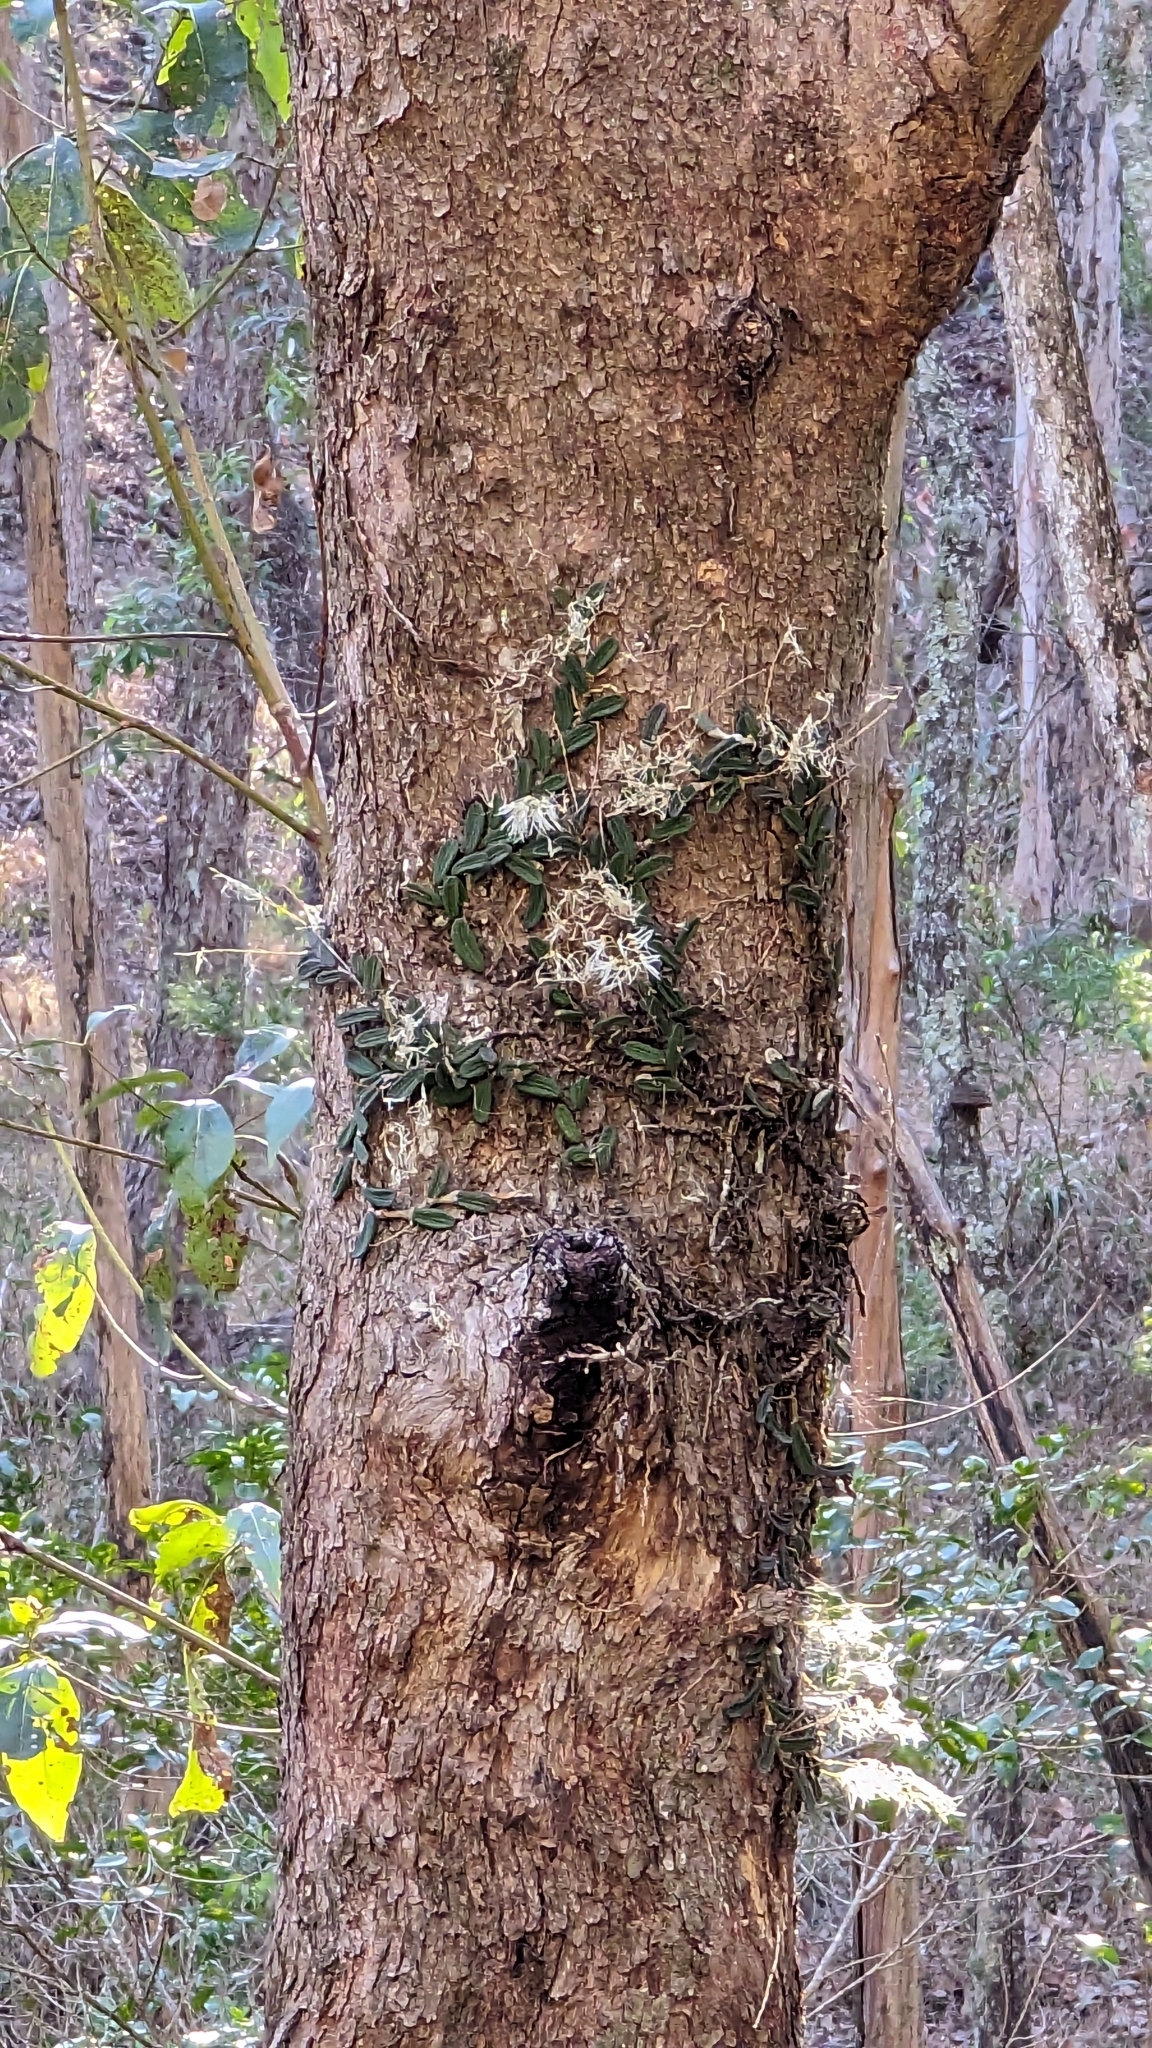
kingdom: Plantae
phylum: Tracheophyta
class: Liliopsida
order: Asparagales
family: Orchidaceae
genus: Dendrobium
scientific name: Dendrobium linguiforme
